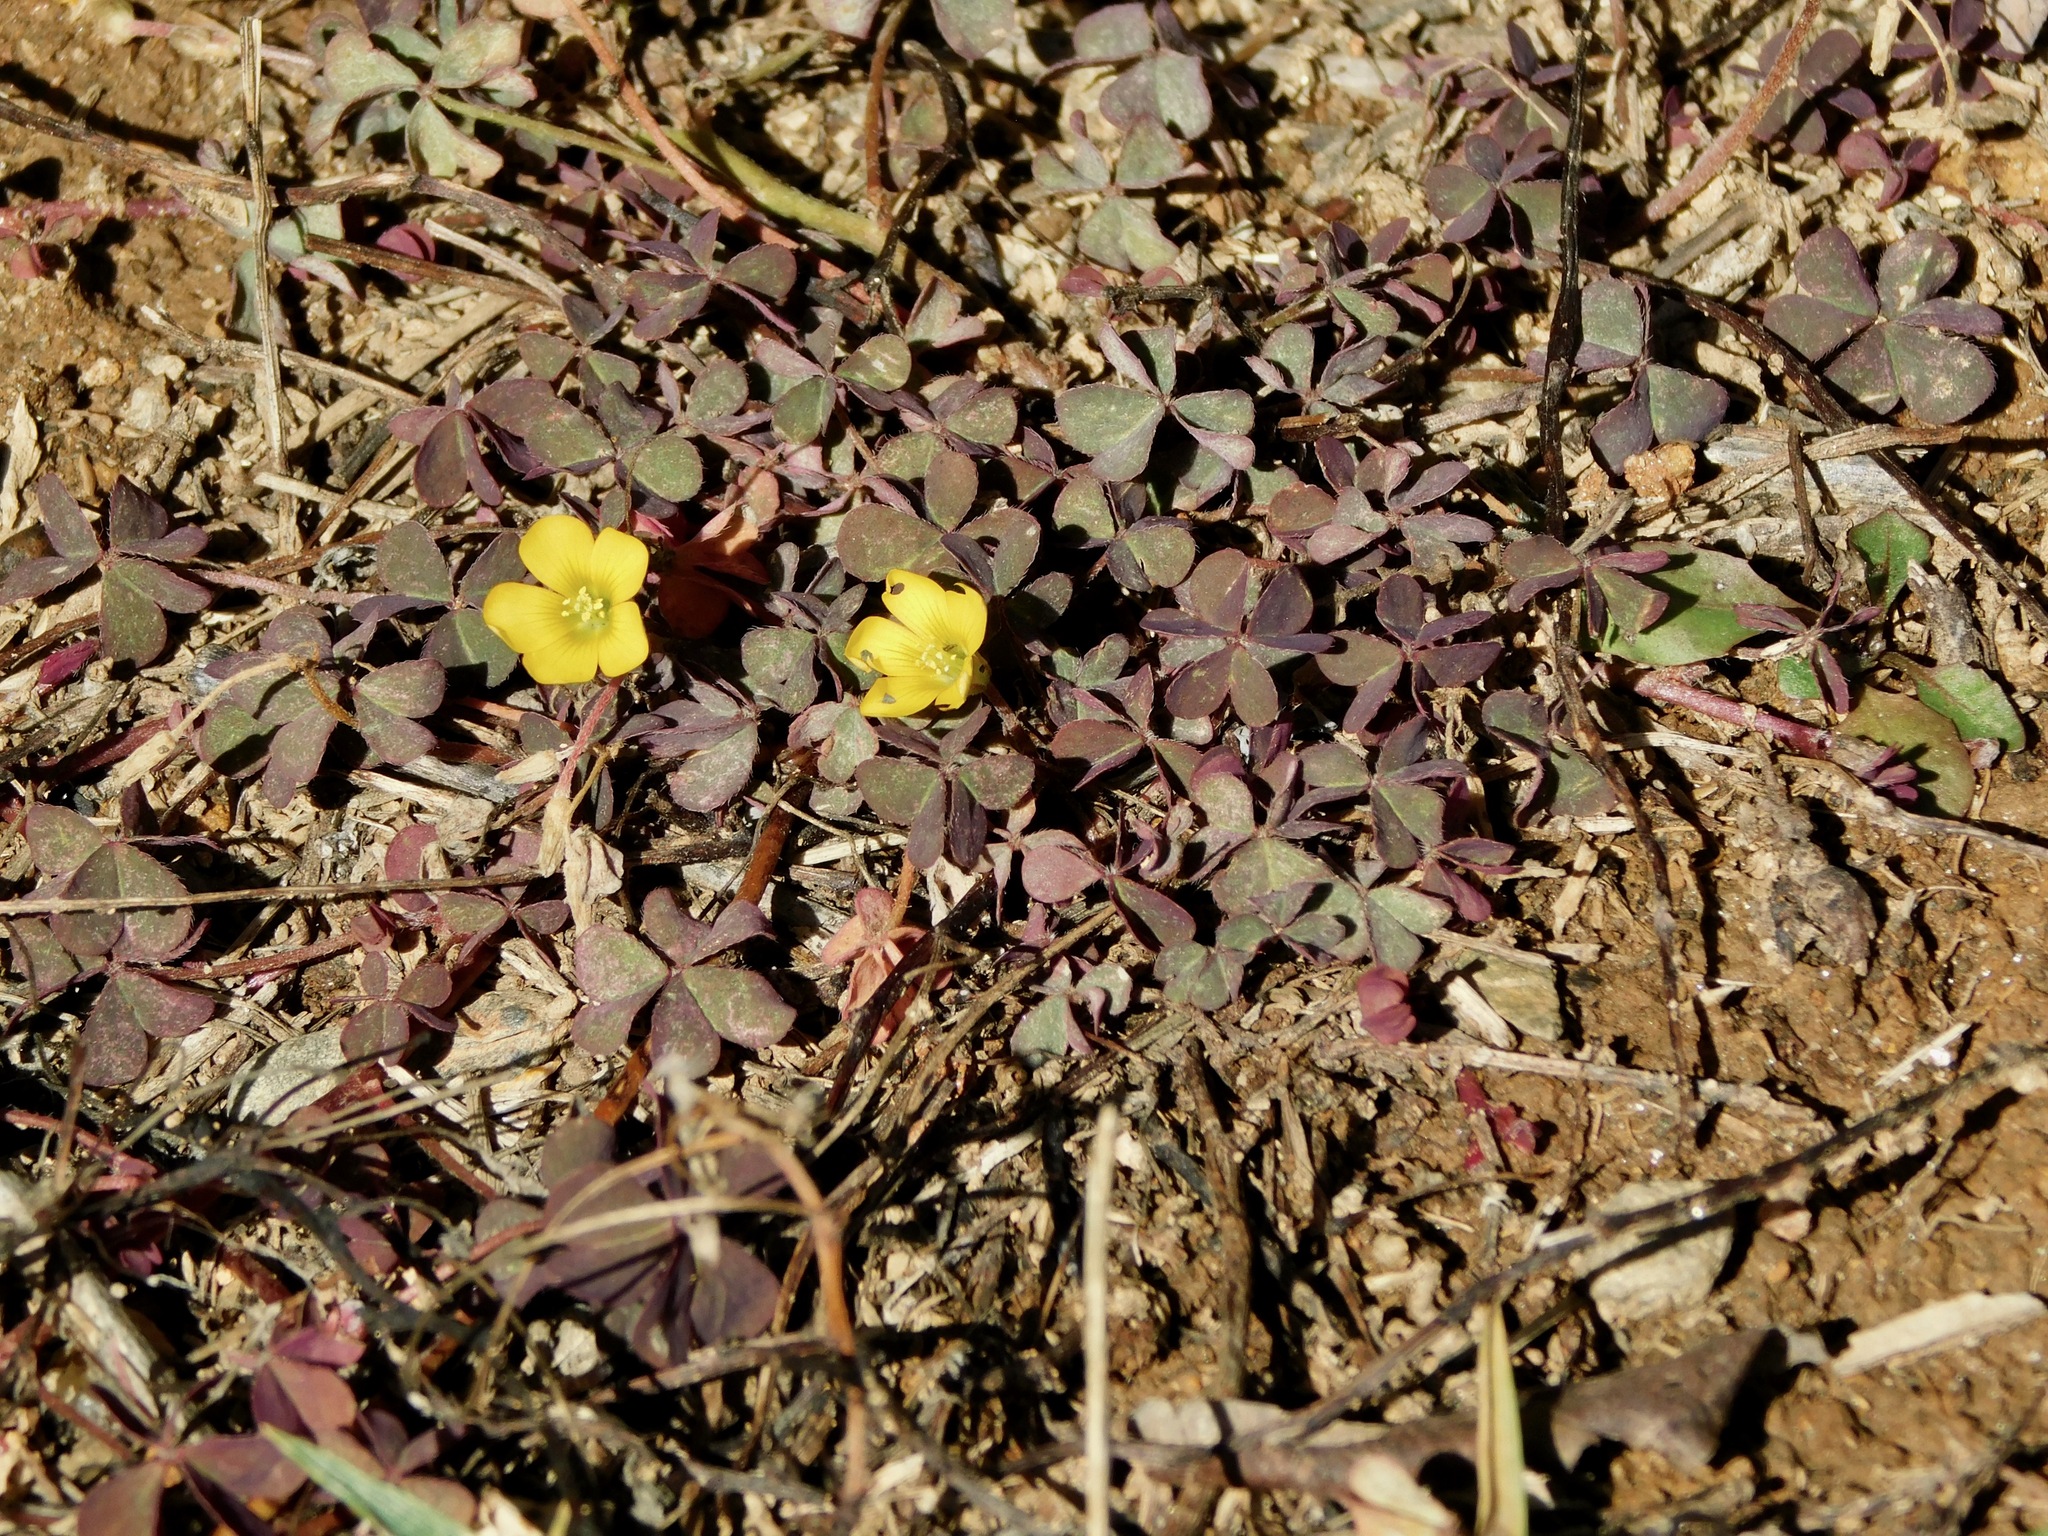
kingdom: Plantae
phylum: Tracheophyta
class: Magnoliopsida
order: Oxalidales
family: Oxalidaceae
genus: Oxalis
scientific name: Oxalis corniculata
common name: Procumbent yellow-sorrel
